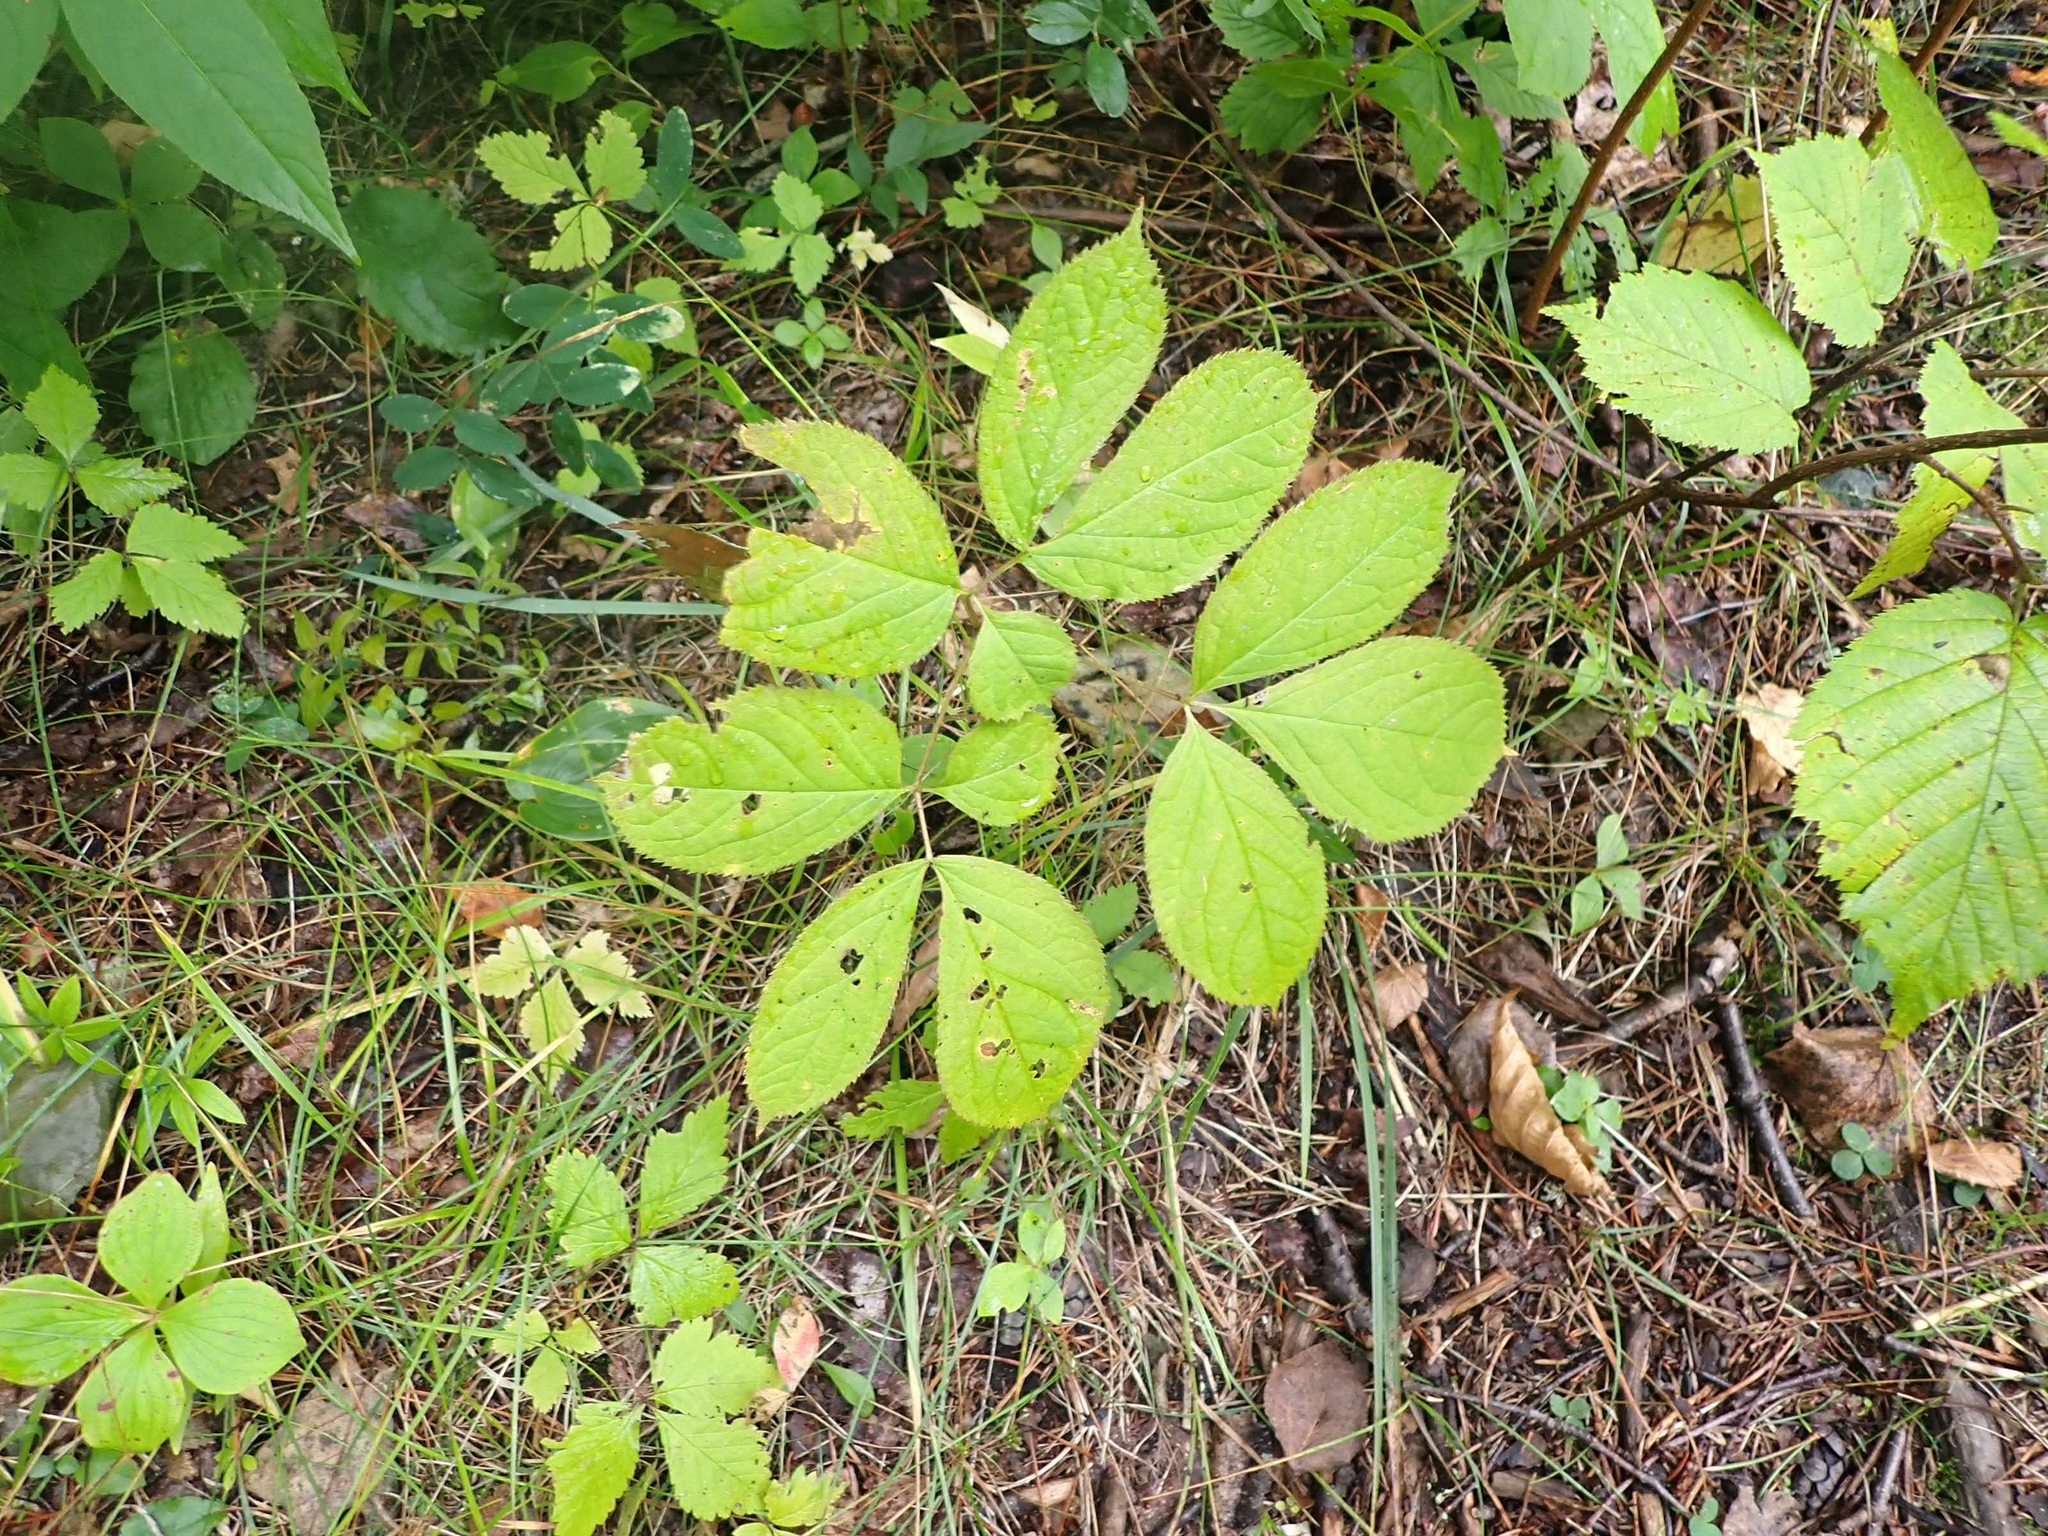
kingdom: Plantae
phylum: Tracheophyta
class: Magnoliopsida
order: Apiales
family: Araliaceae
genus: Aralia
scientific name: Aralia nudicaulis
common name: Wild sarsaparilla
